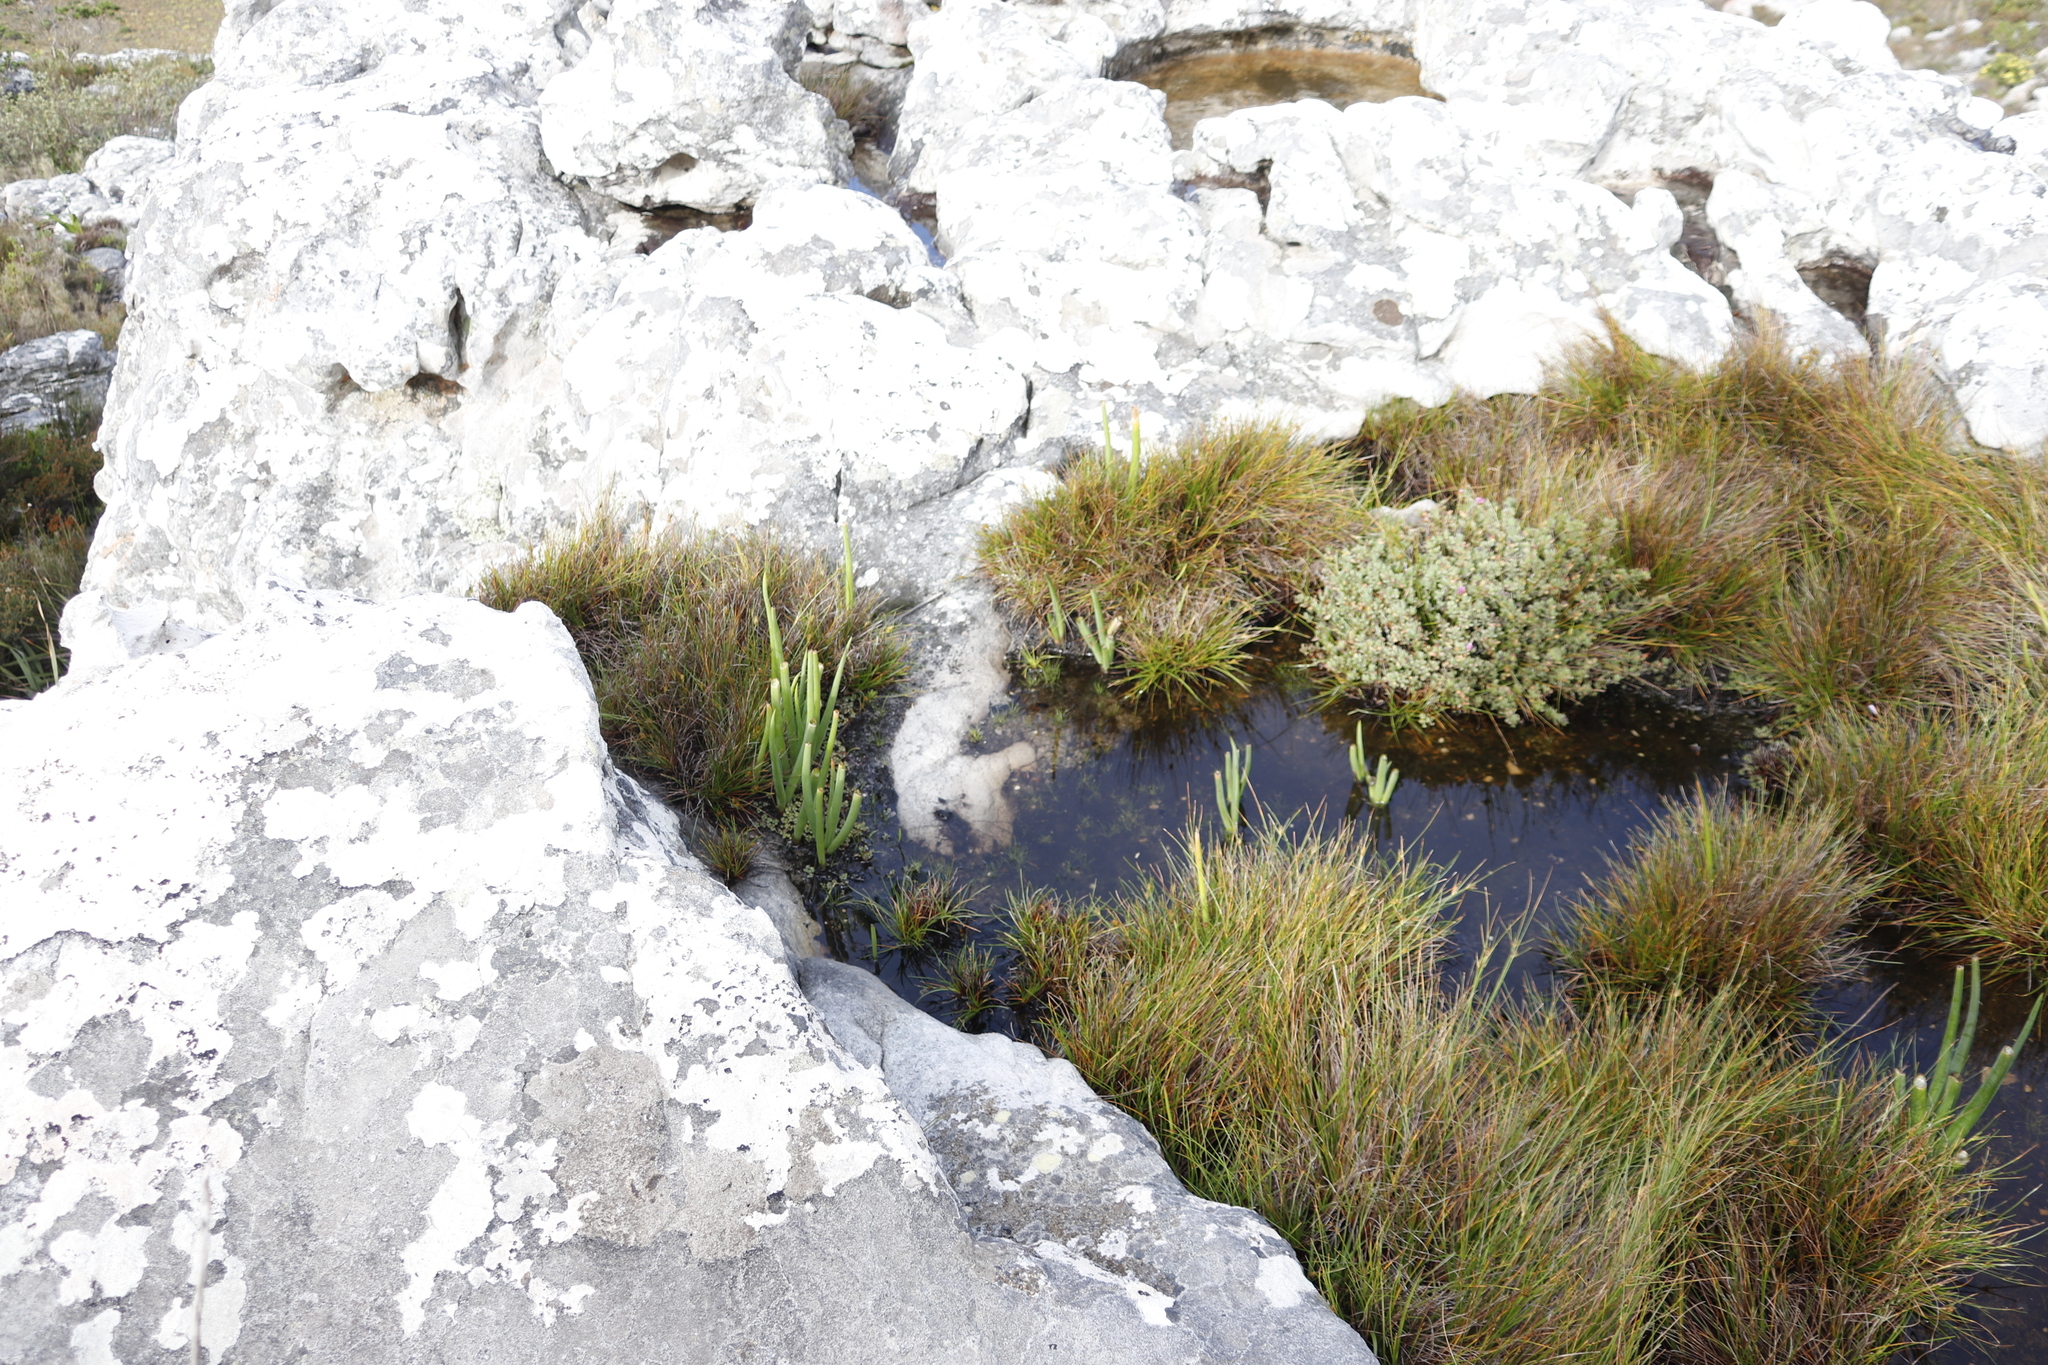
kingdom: Plantae
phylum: Tracheophyta
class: Liliopsida
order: Poales
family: Cyperaceae
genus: Ficinia
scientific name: Ficinia anceps
